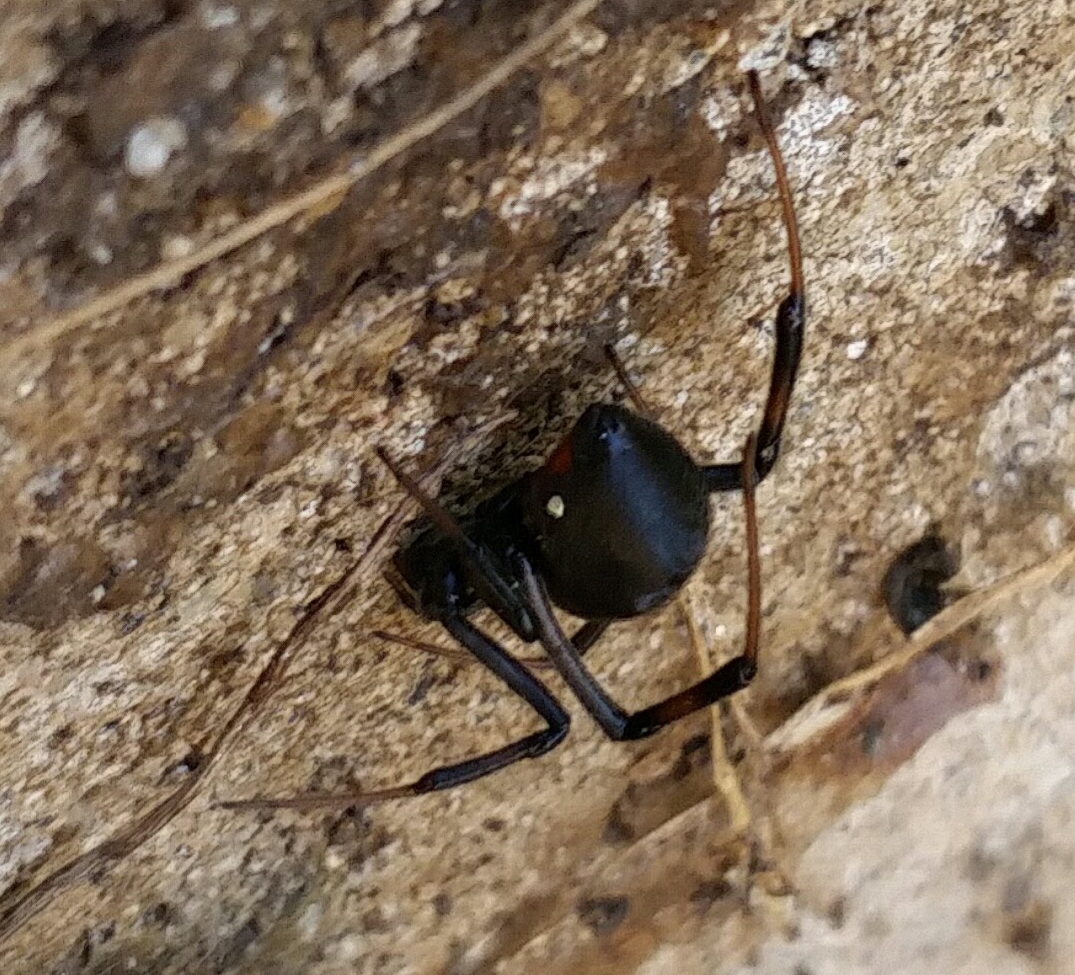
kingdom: Animalia
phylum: Arthropoda
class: Arachnida
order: Araneae
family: Theridiidae
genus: Latrodectus
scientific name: Latrodectus hesperus
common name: Western black widow
